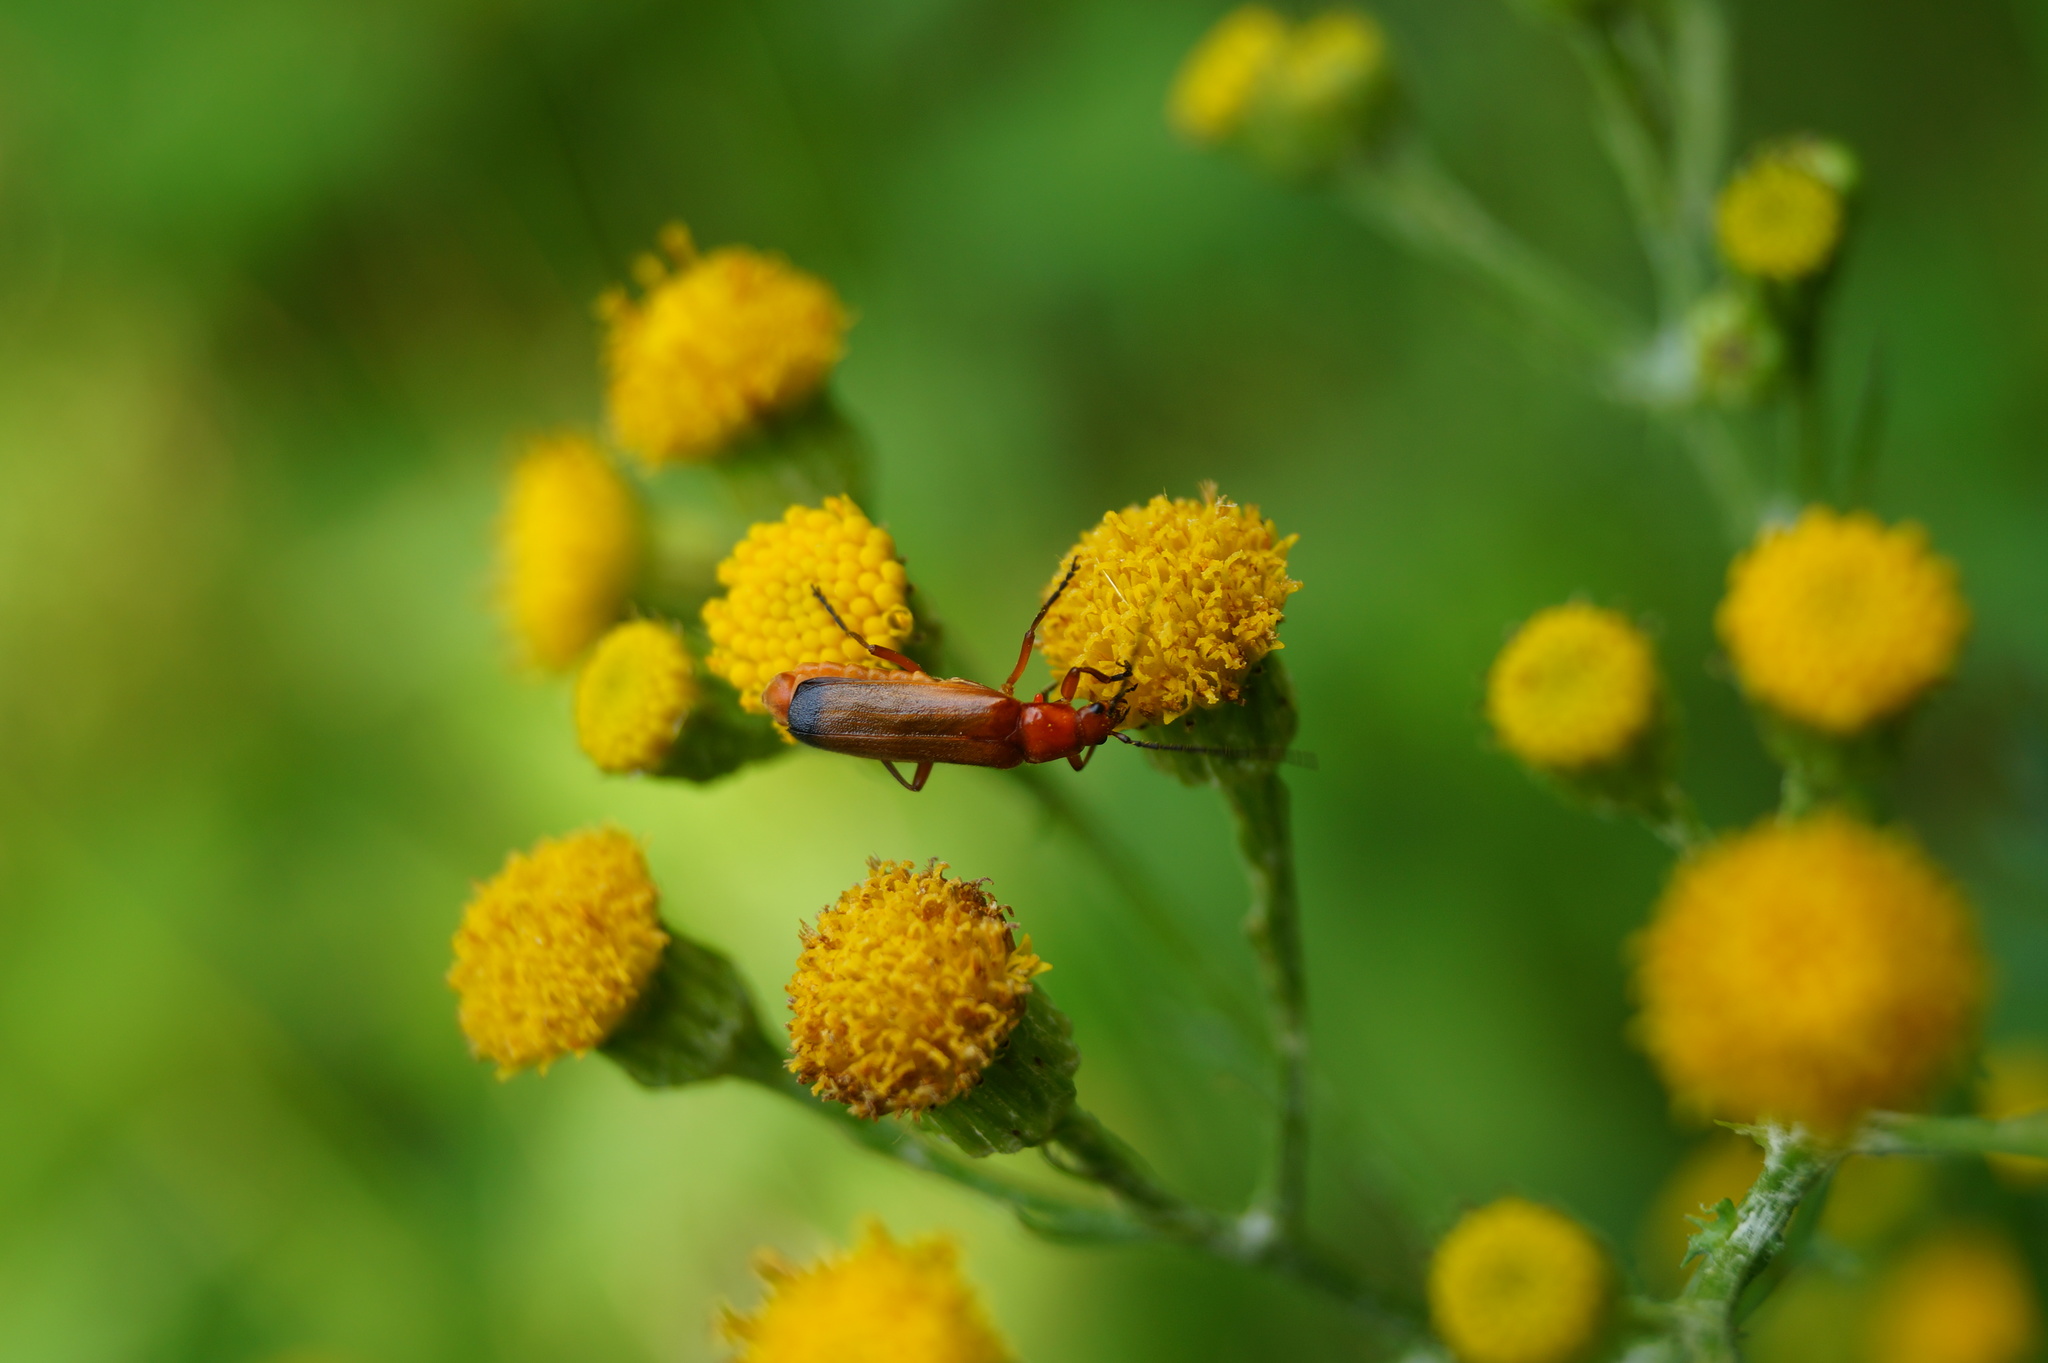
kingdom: Animalia
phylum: Arthropoda
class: Insecta
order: Coleoptera
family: Cantharidae
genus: Rhagonycha
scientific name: Rhagonycha fulva
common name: Common red soldier beetle
